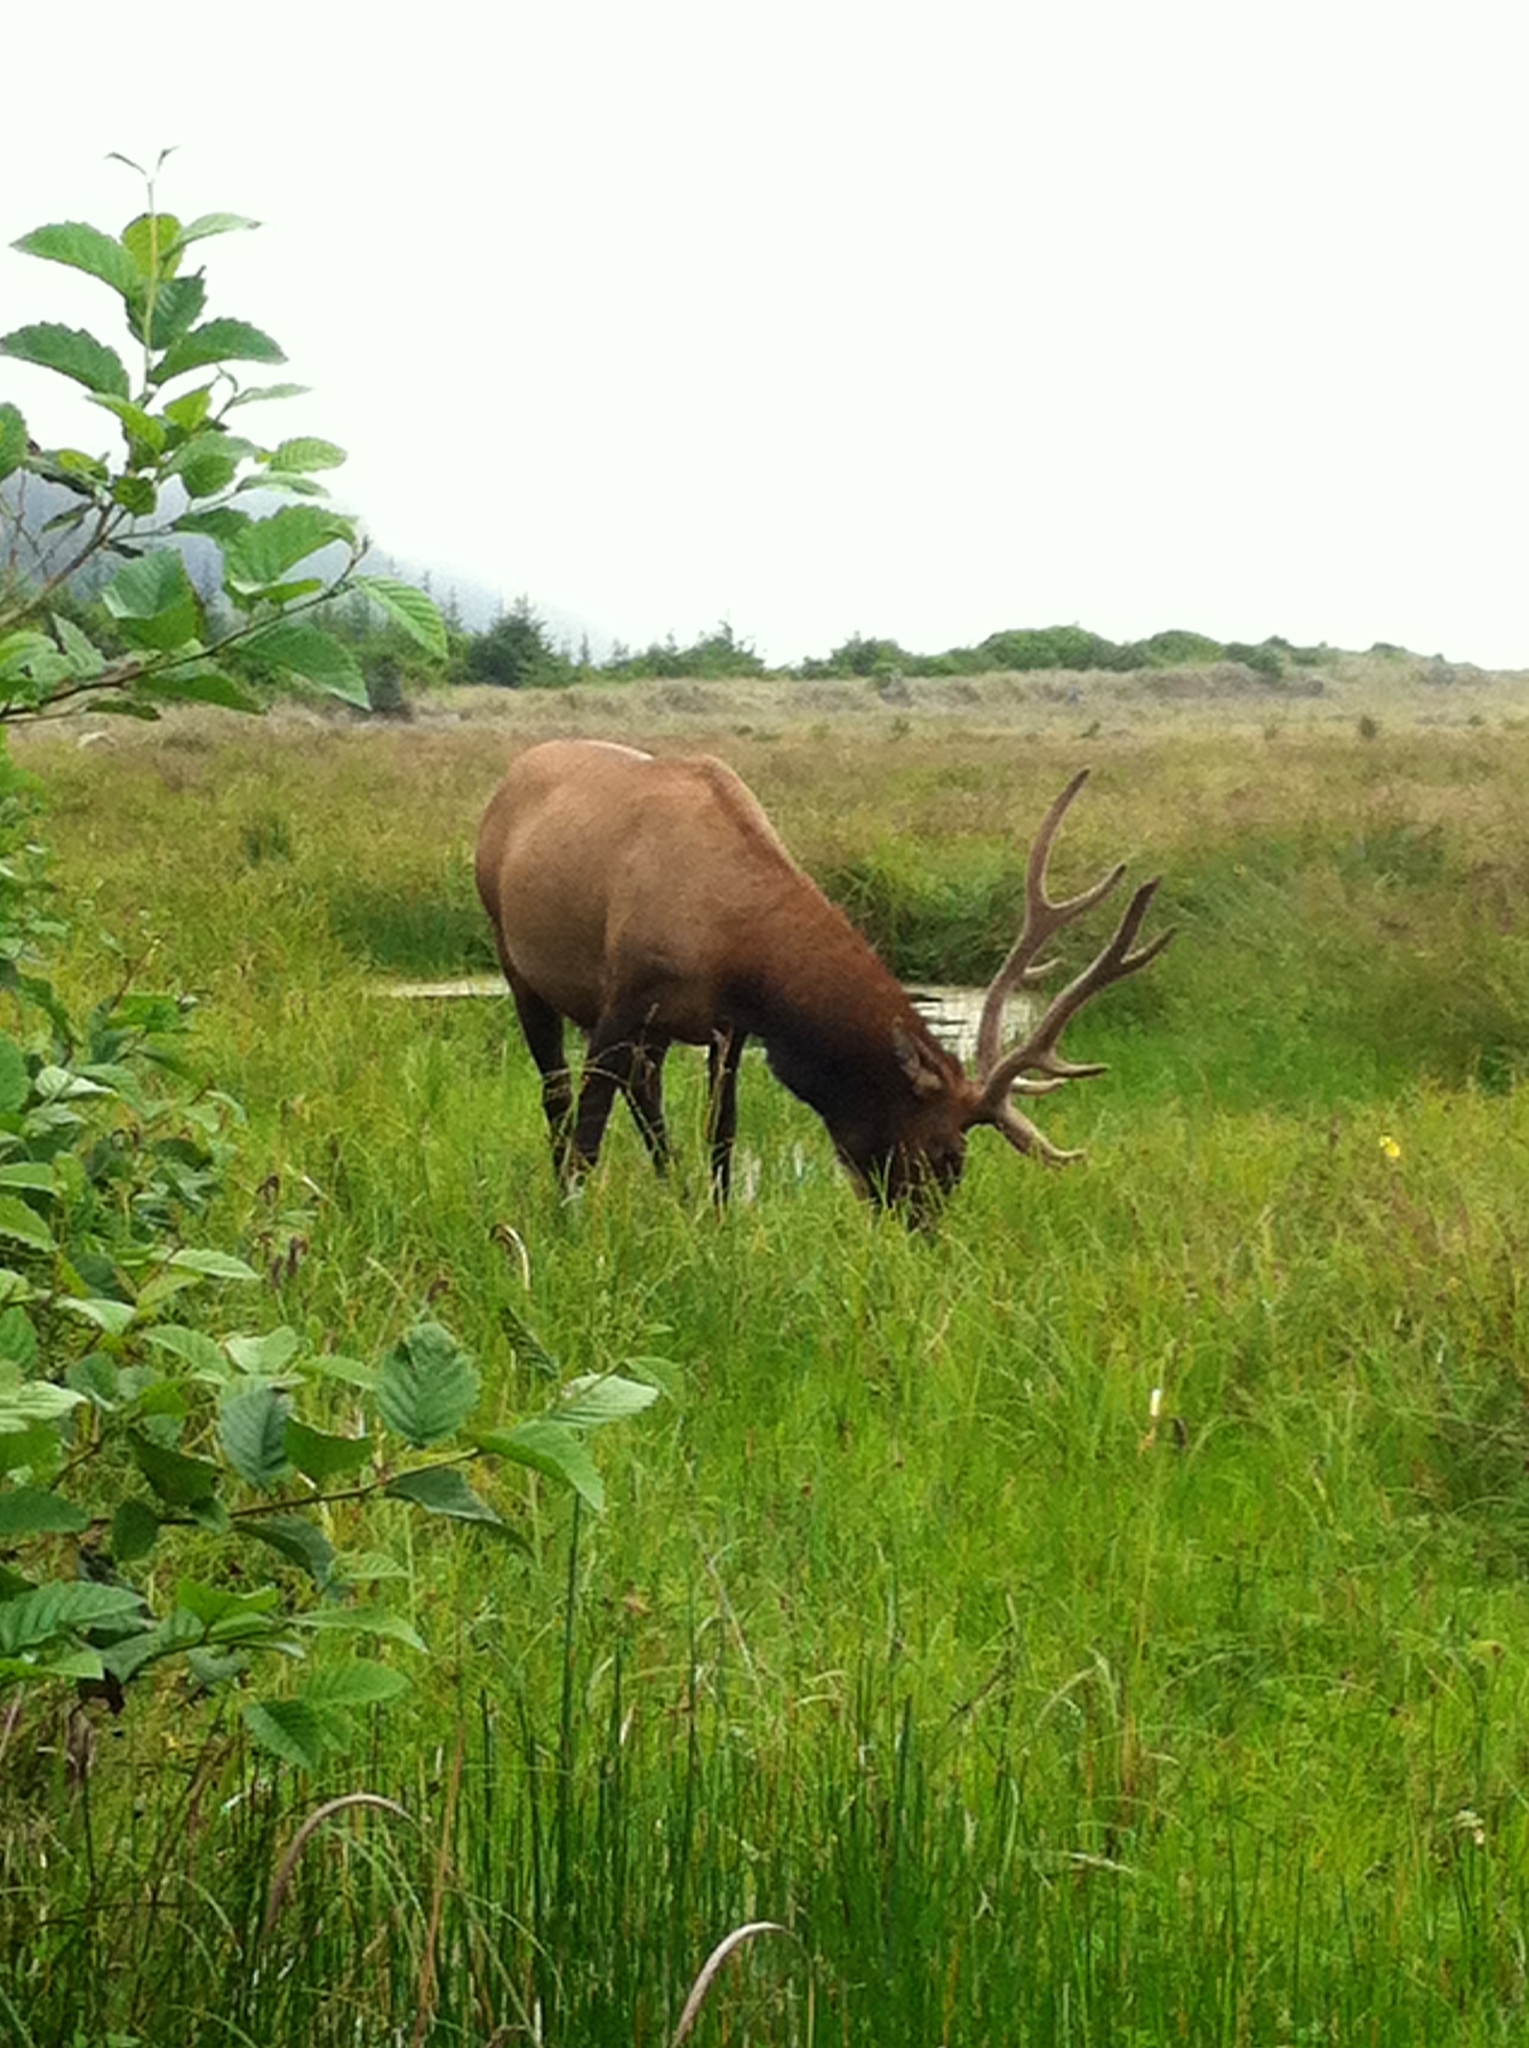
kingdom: Animalia
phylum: Chordata
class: Mammalia
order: Artiodactyla
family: Cervidae
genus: Cervus
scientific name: Cervus elaphus
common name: Red deer
